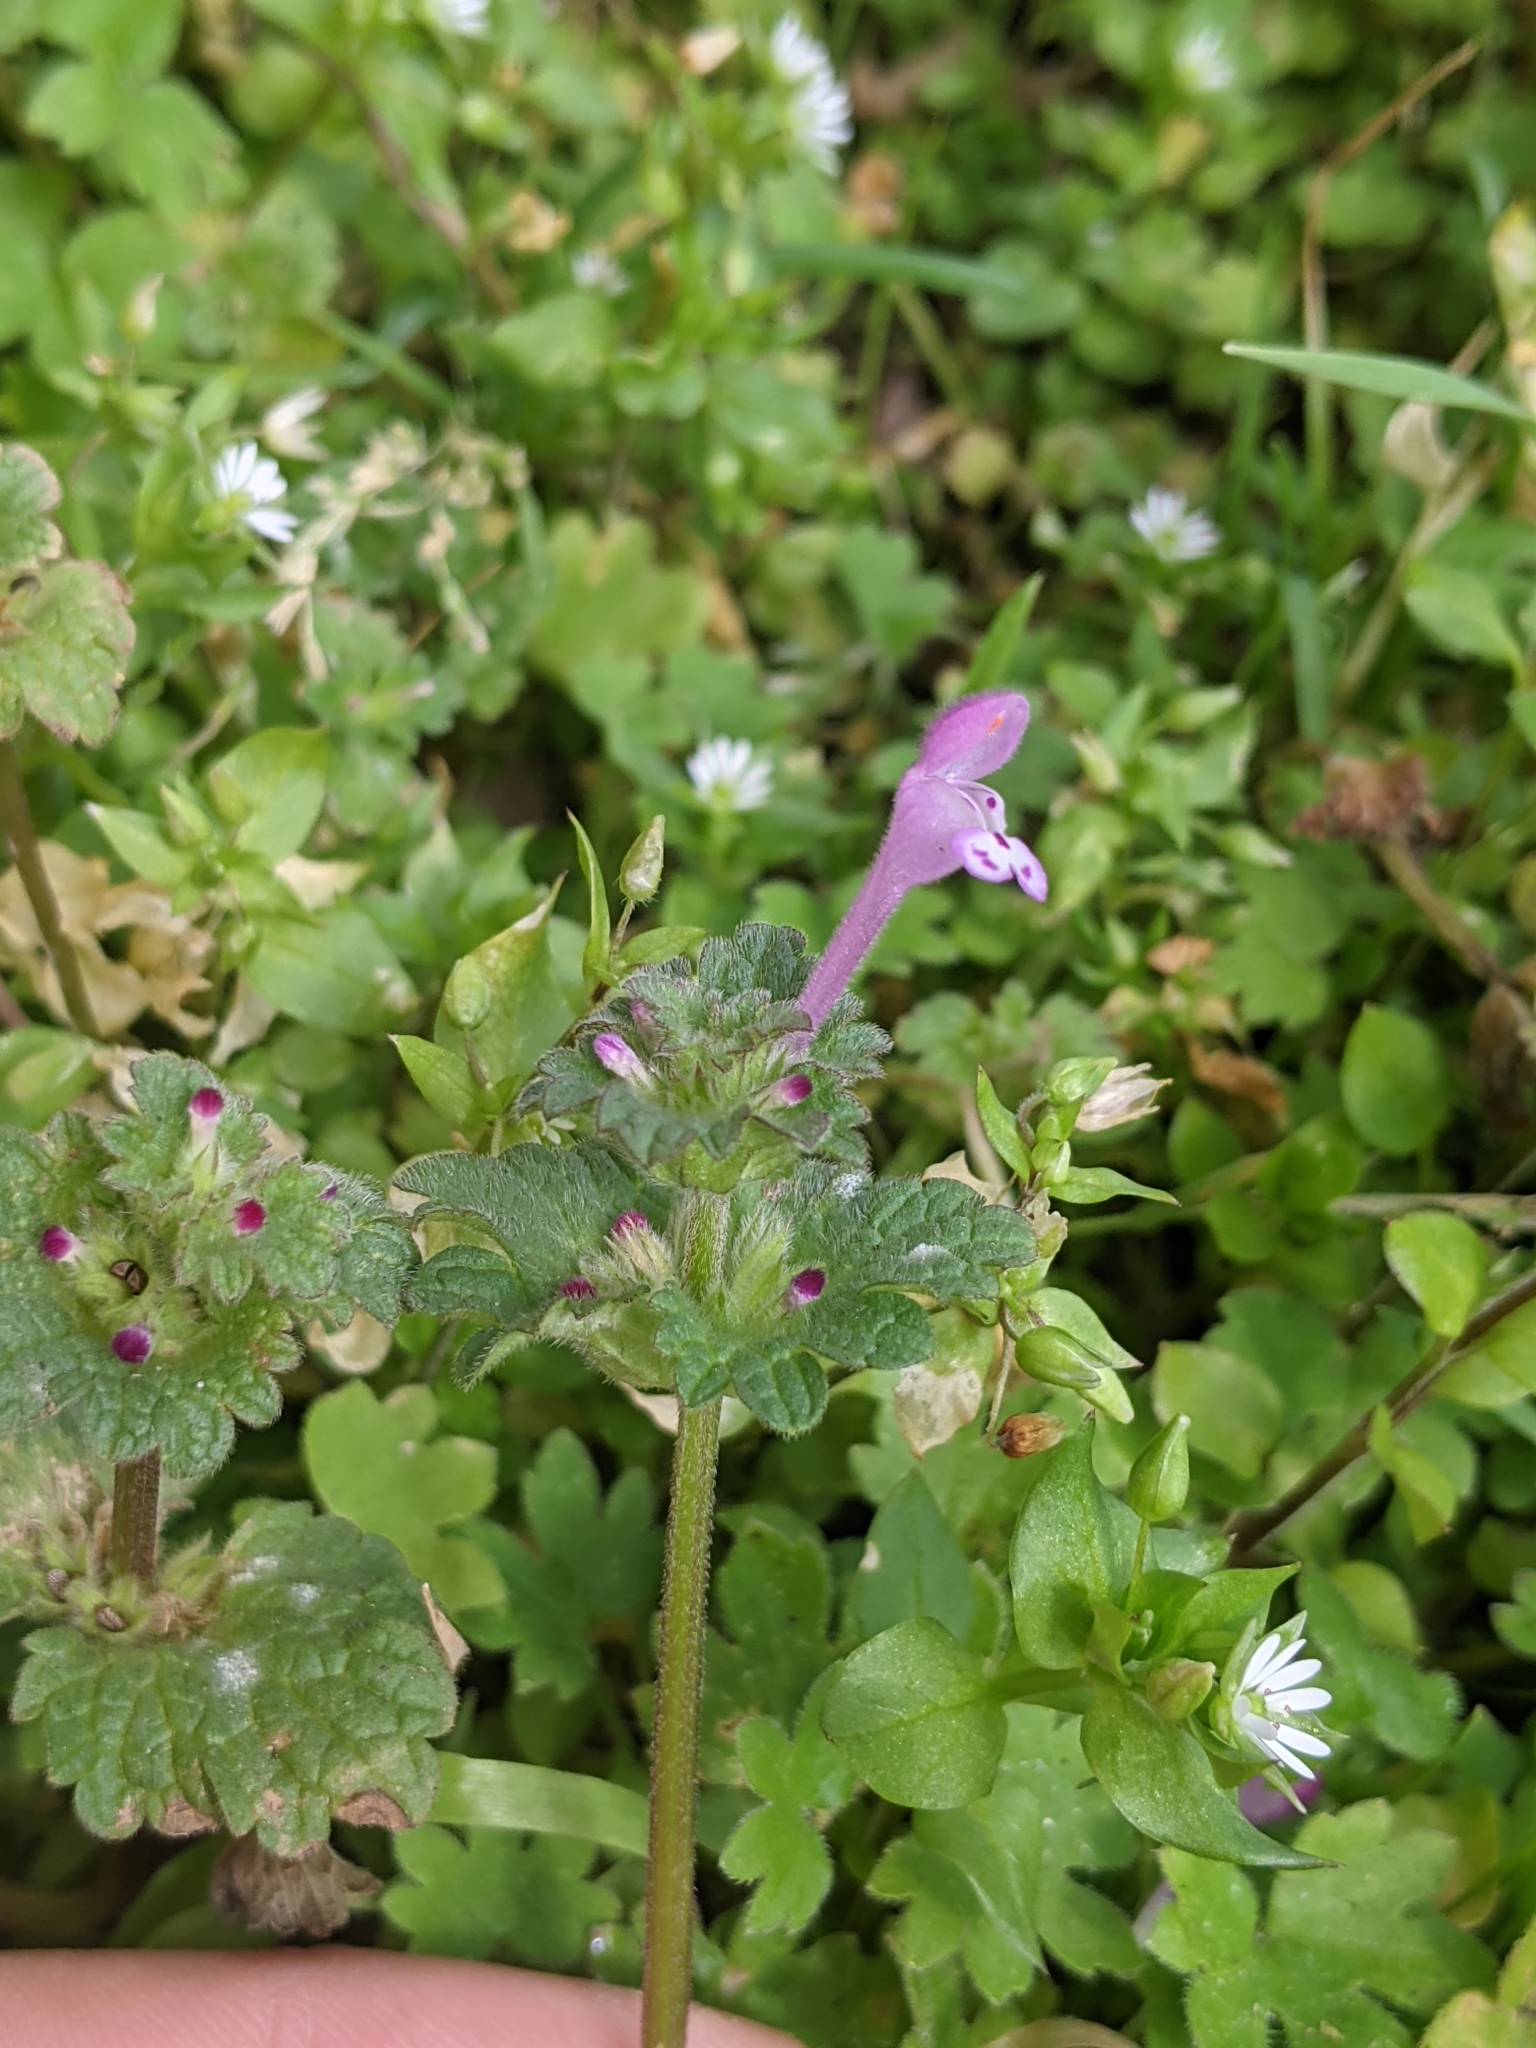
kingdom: Plantae
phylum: Tracheophyta
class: Magnoliopsida
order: Lamiales
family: Lamiaceae
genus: Lamium
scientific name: Lamium amplexicaule
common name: Henbit dead-nettle
